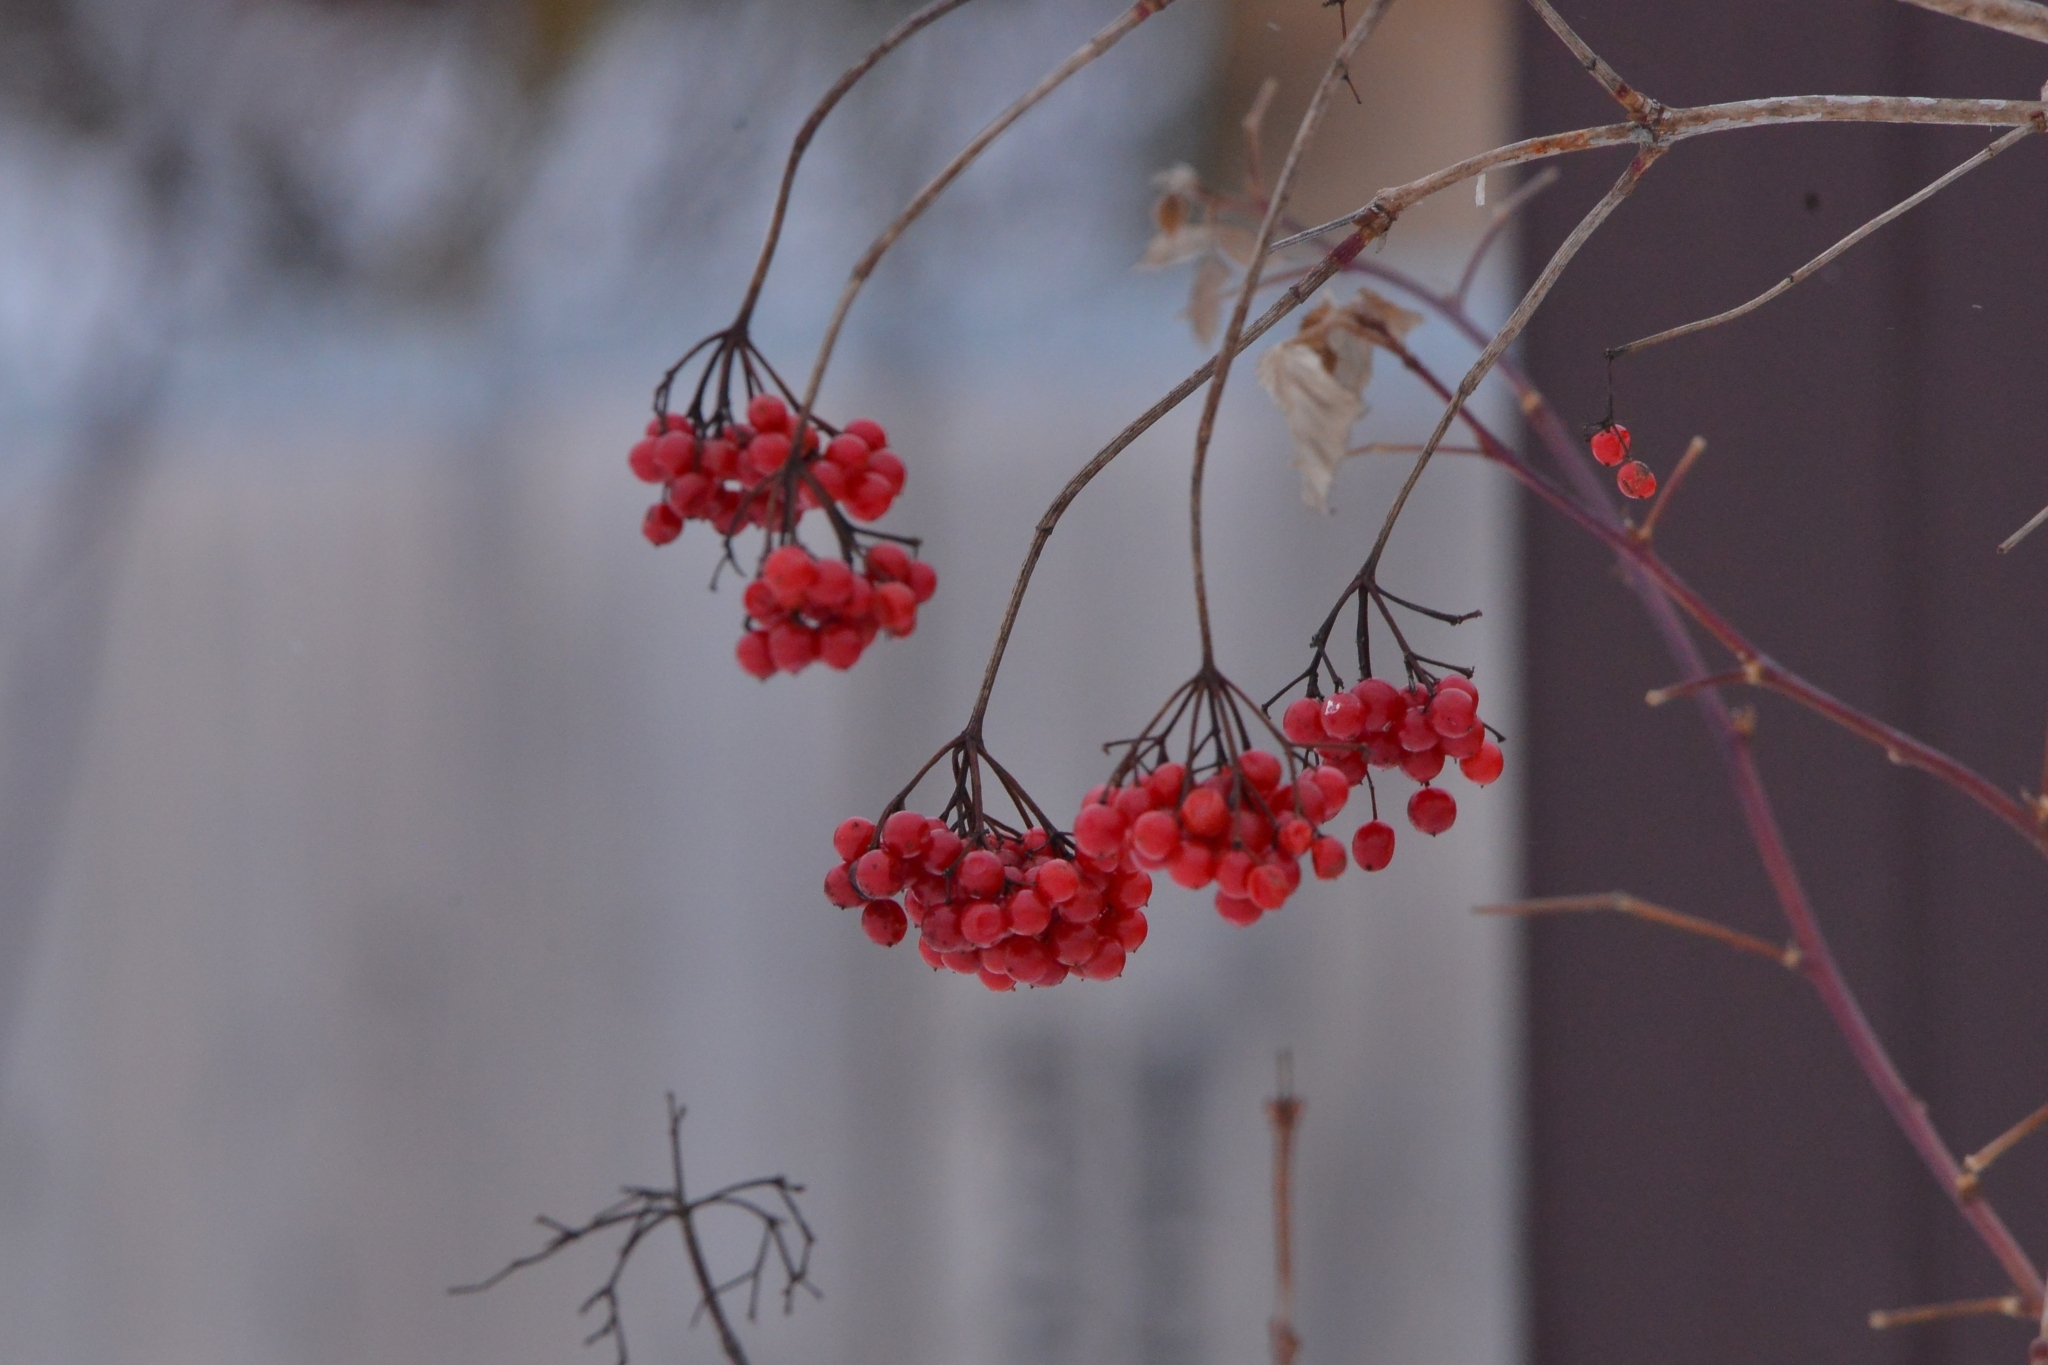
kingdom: Plantae
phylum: Tracheophyta
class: Magnoliopsida
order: Dipsacales
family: Viburnaceae
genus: Viburnum
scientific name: Viburnum opulus
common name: Guelder-rose
